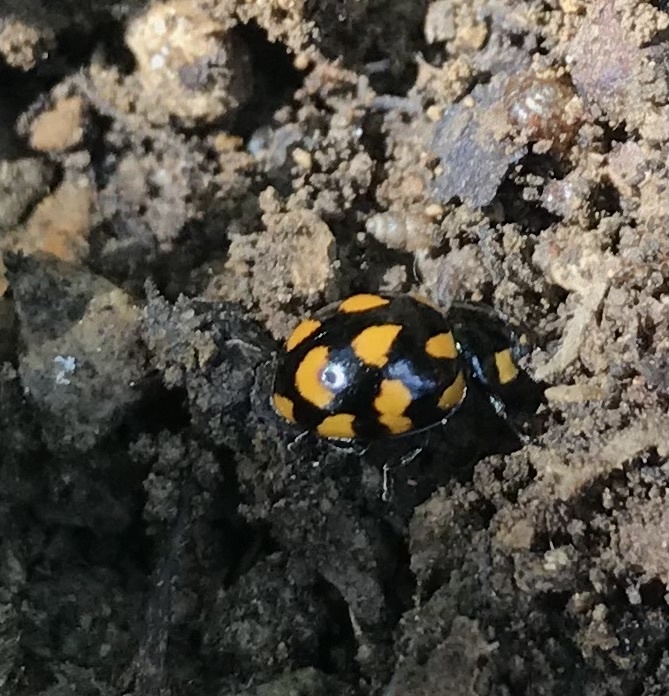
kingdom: Animalia
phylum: Arthropoda
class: Insecta
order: Coleoptera
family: Coccinellidae
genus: Coccinella
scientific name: Coccinella leonina
